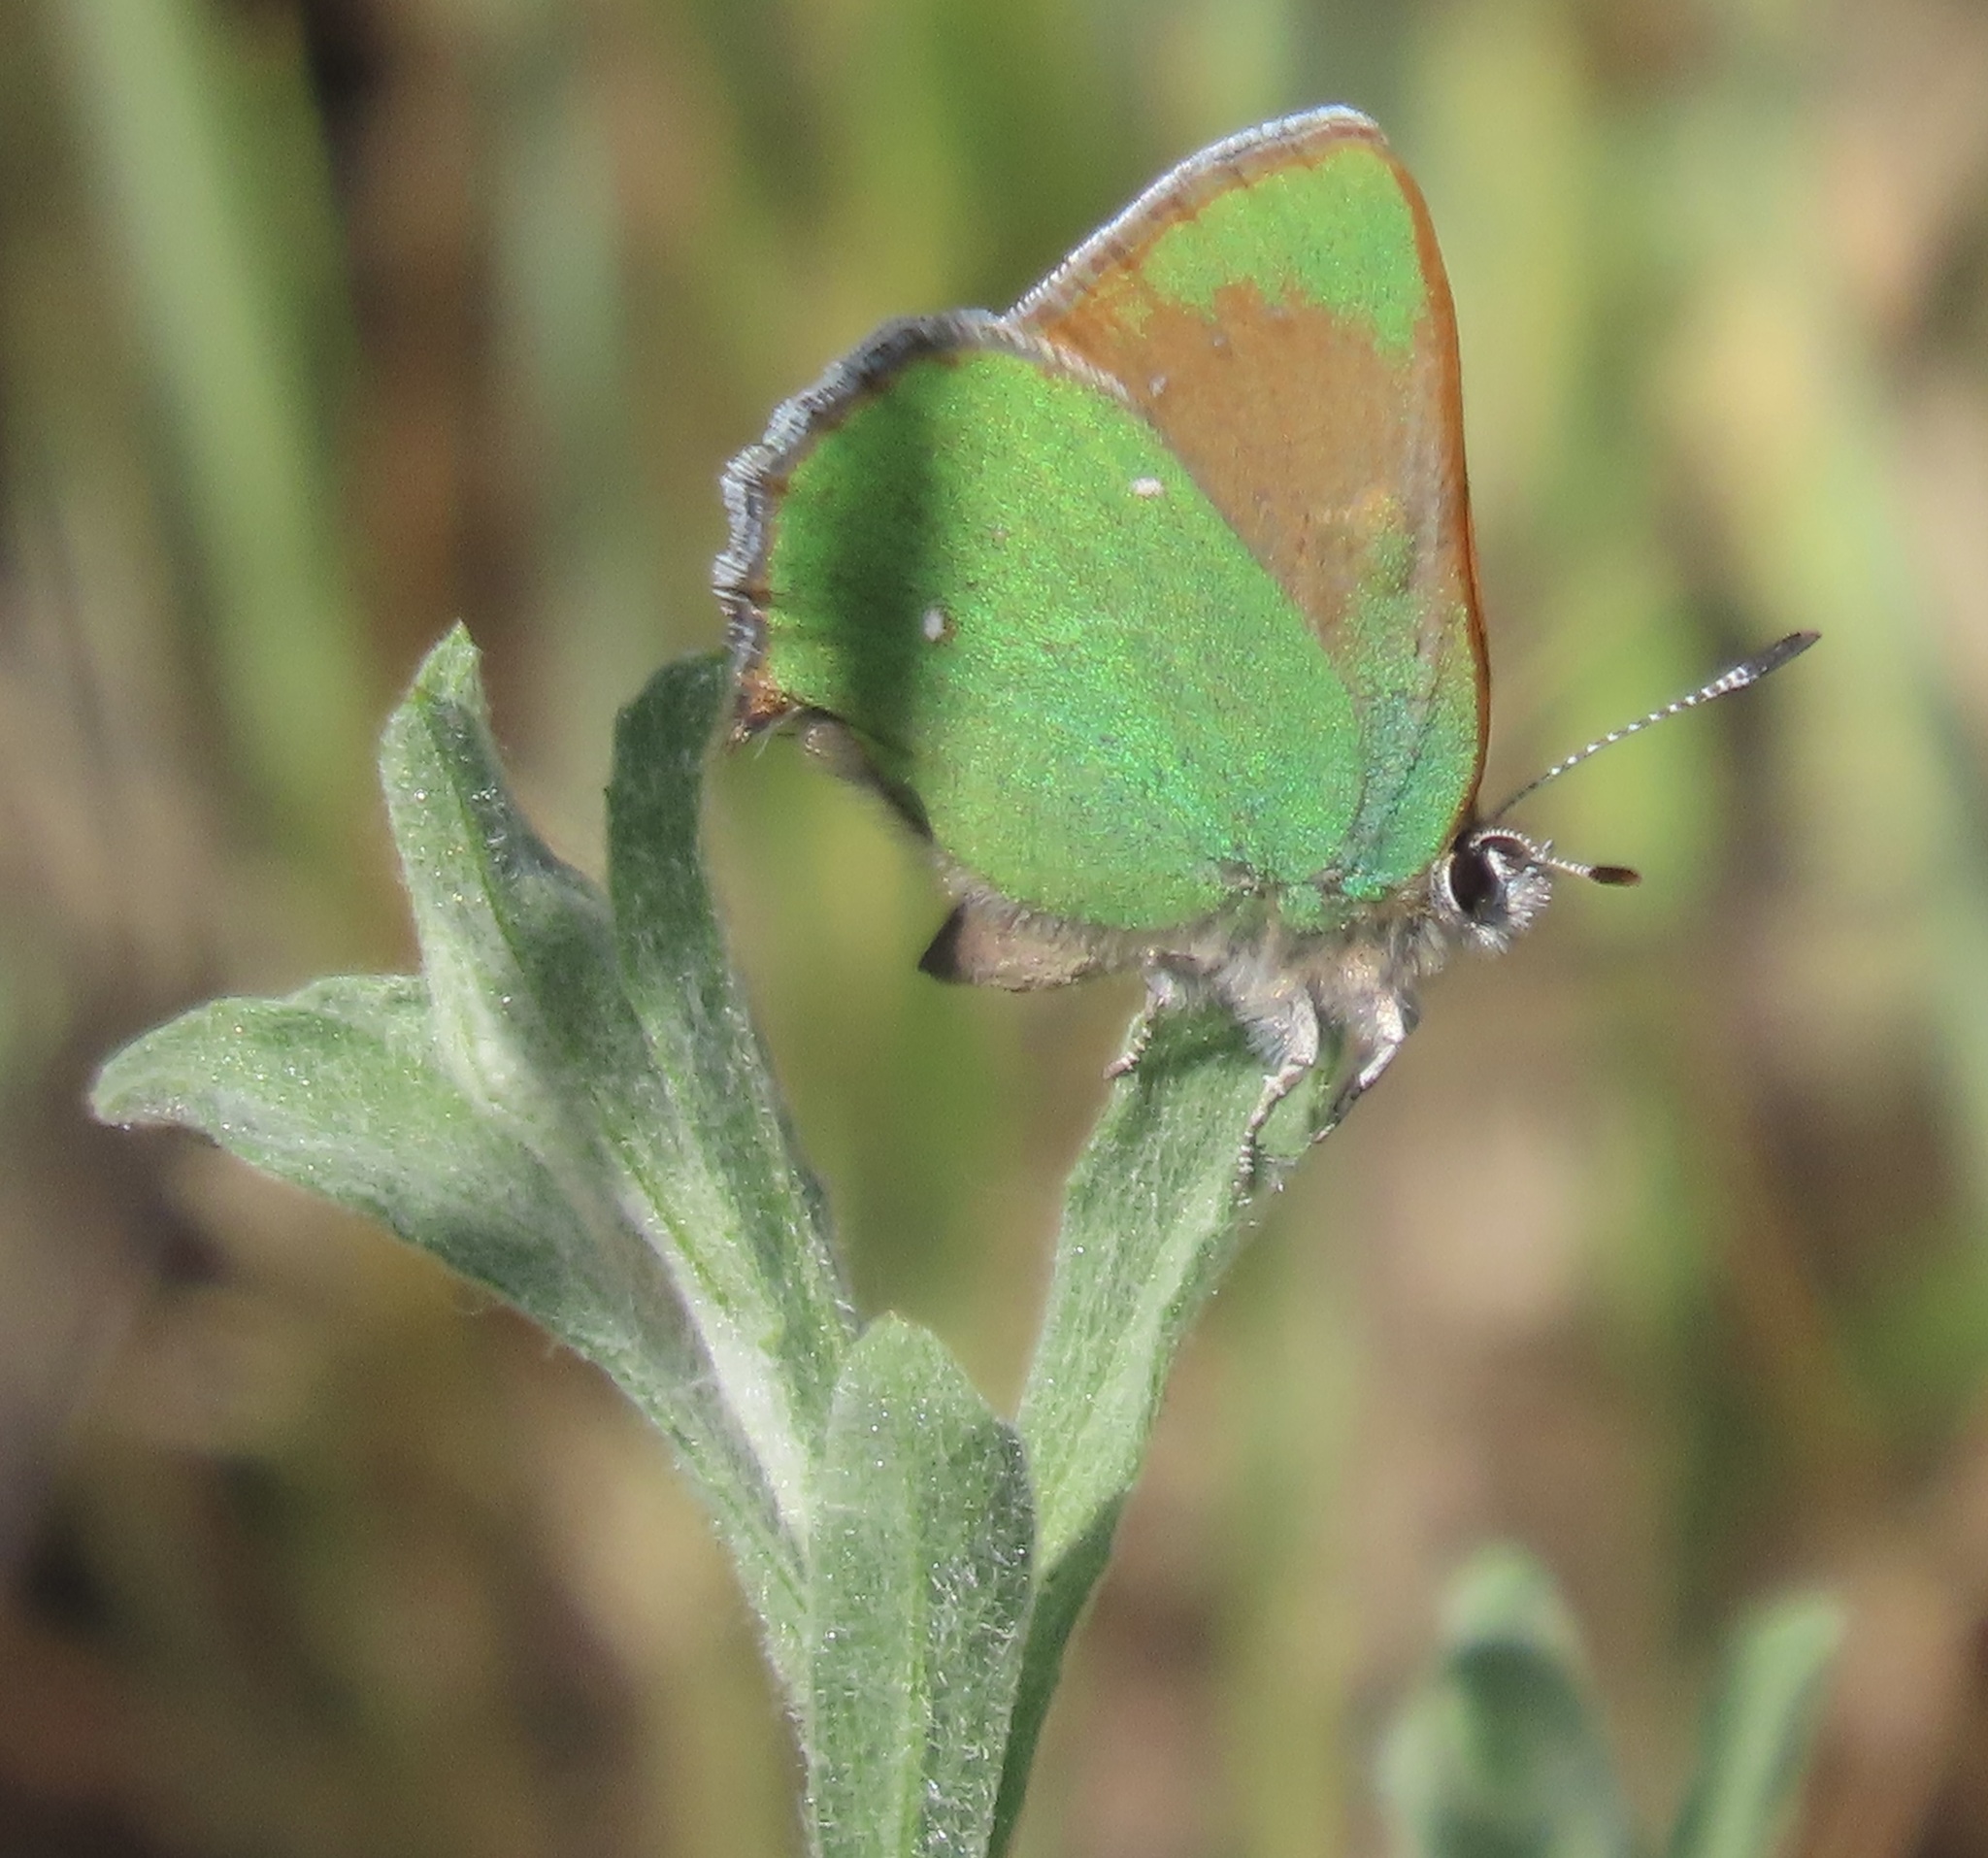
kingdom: Animalia
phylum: Arthropoda
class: Insecta
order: Lepidoptera
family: Lycaenidae
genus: Callophrys
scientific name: Callophrys dumetorum
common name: Bramble hairstreak
